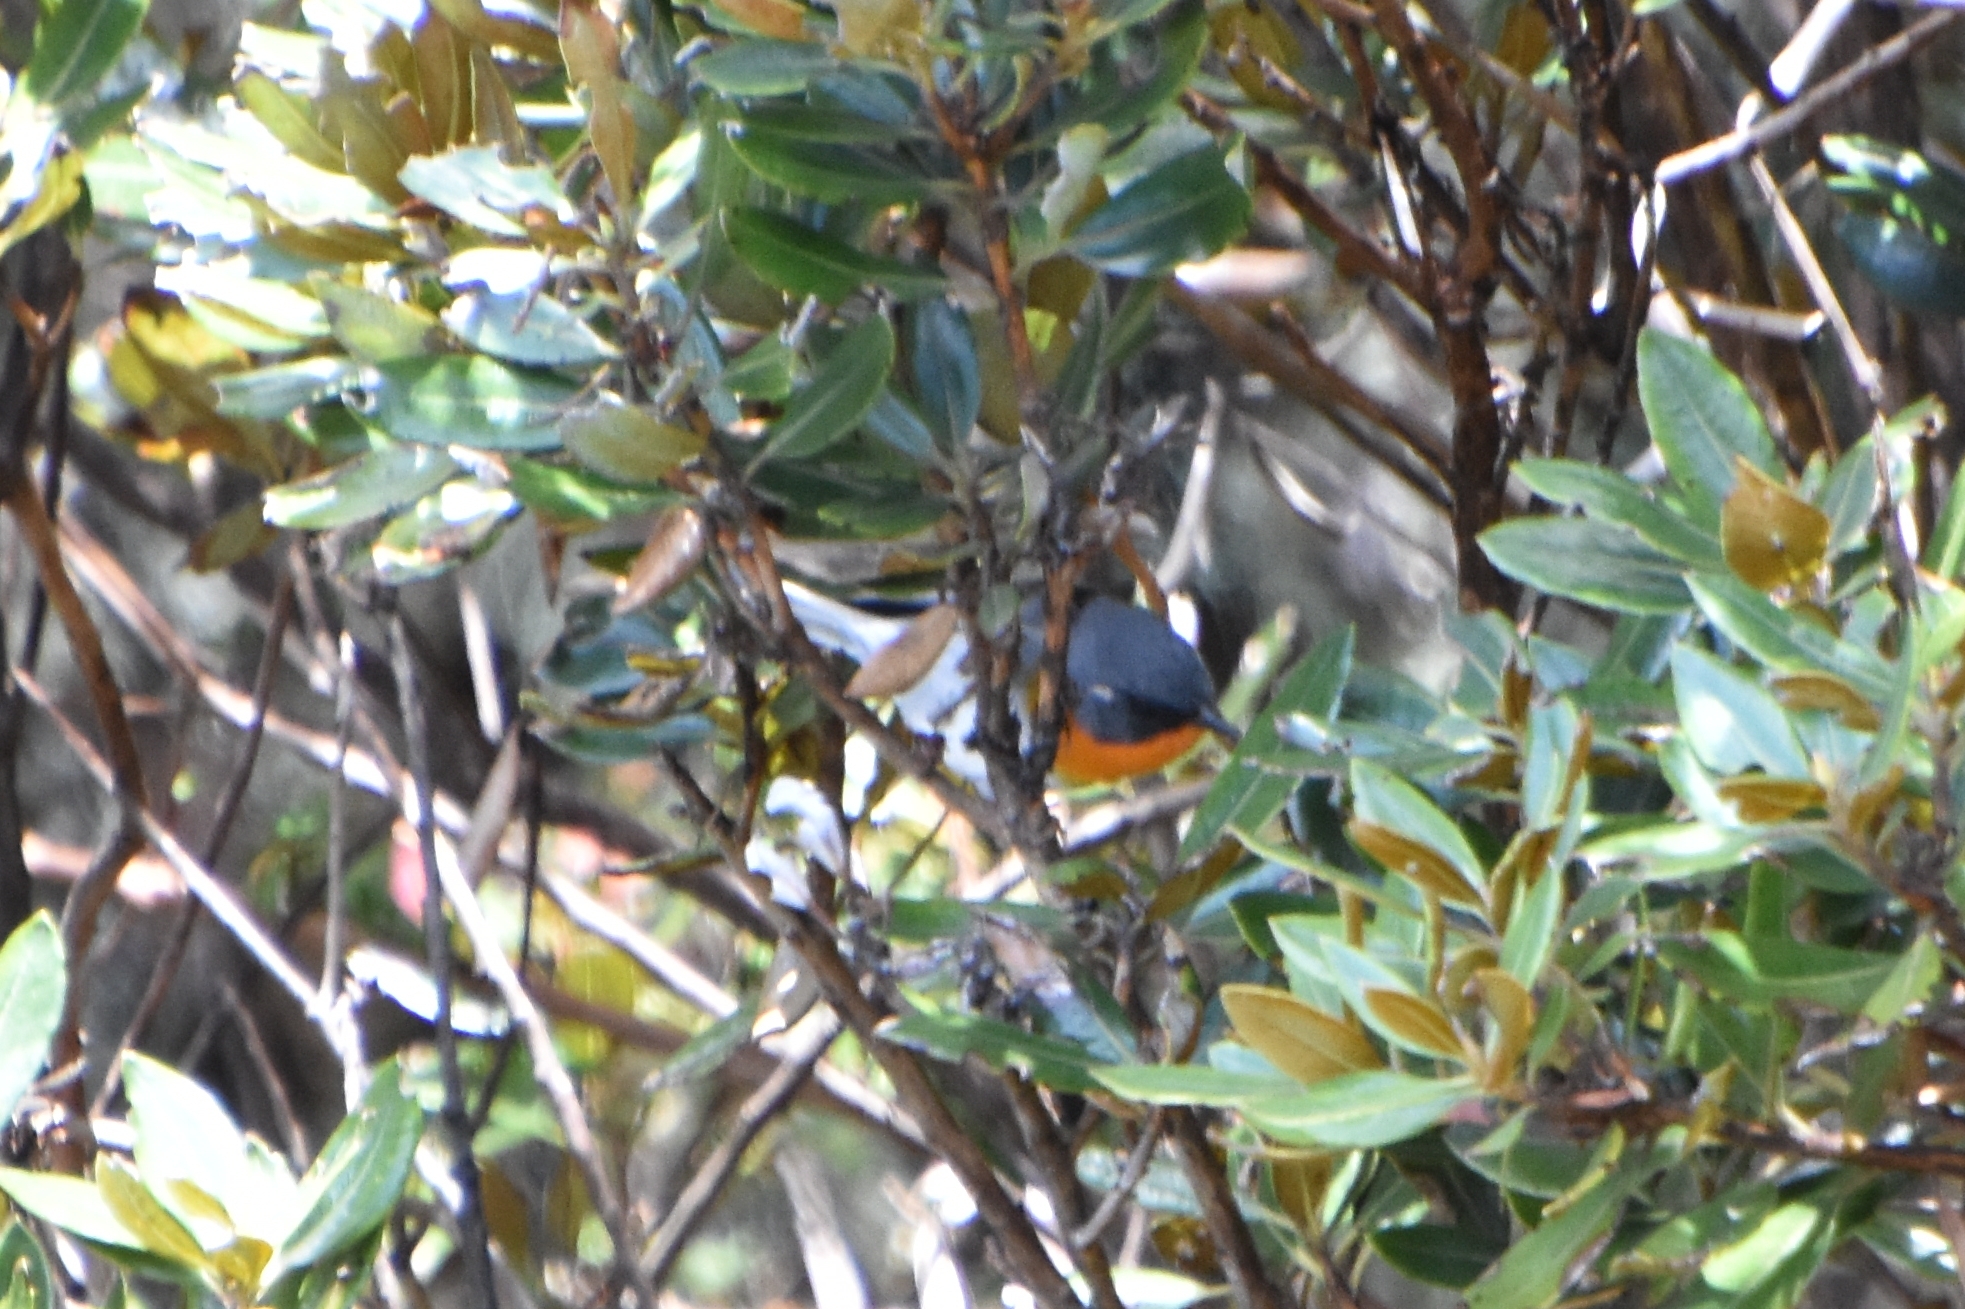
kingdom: Animalia
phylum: Chordata
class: Aves
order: Passeriformes
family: Parulidae
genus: Oreothlypis
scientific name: Oreothlypis gutturalis
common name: Flame-throated warbler
